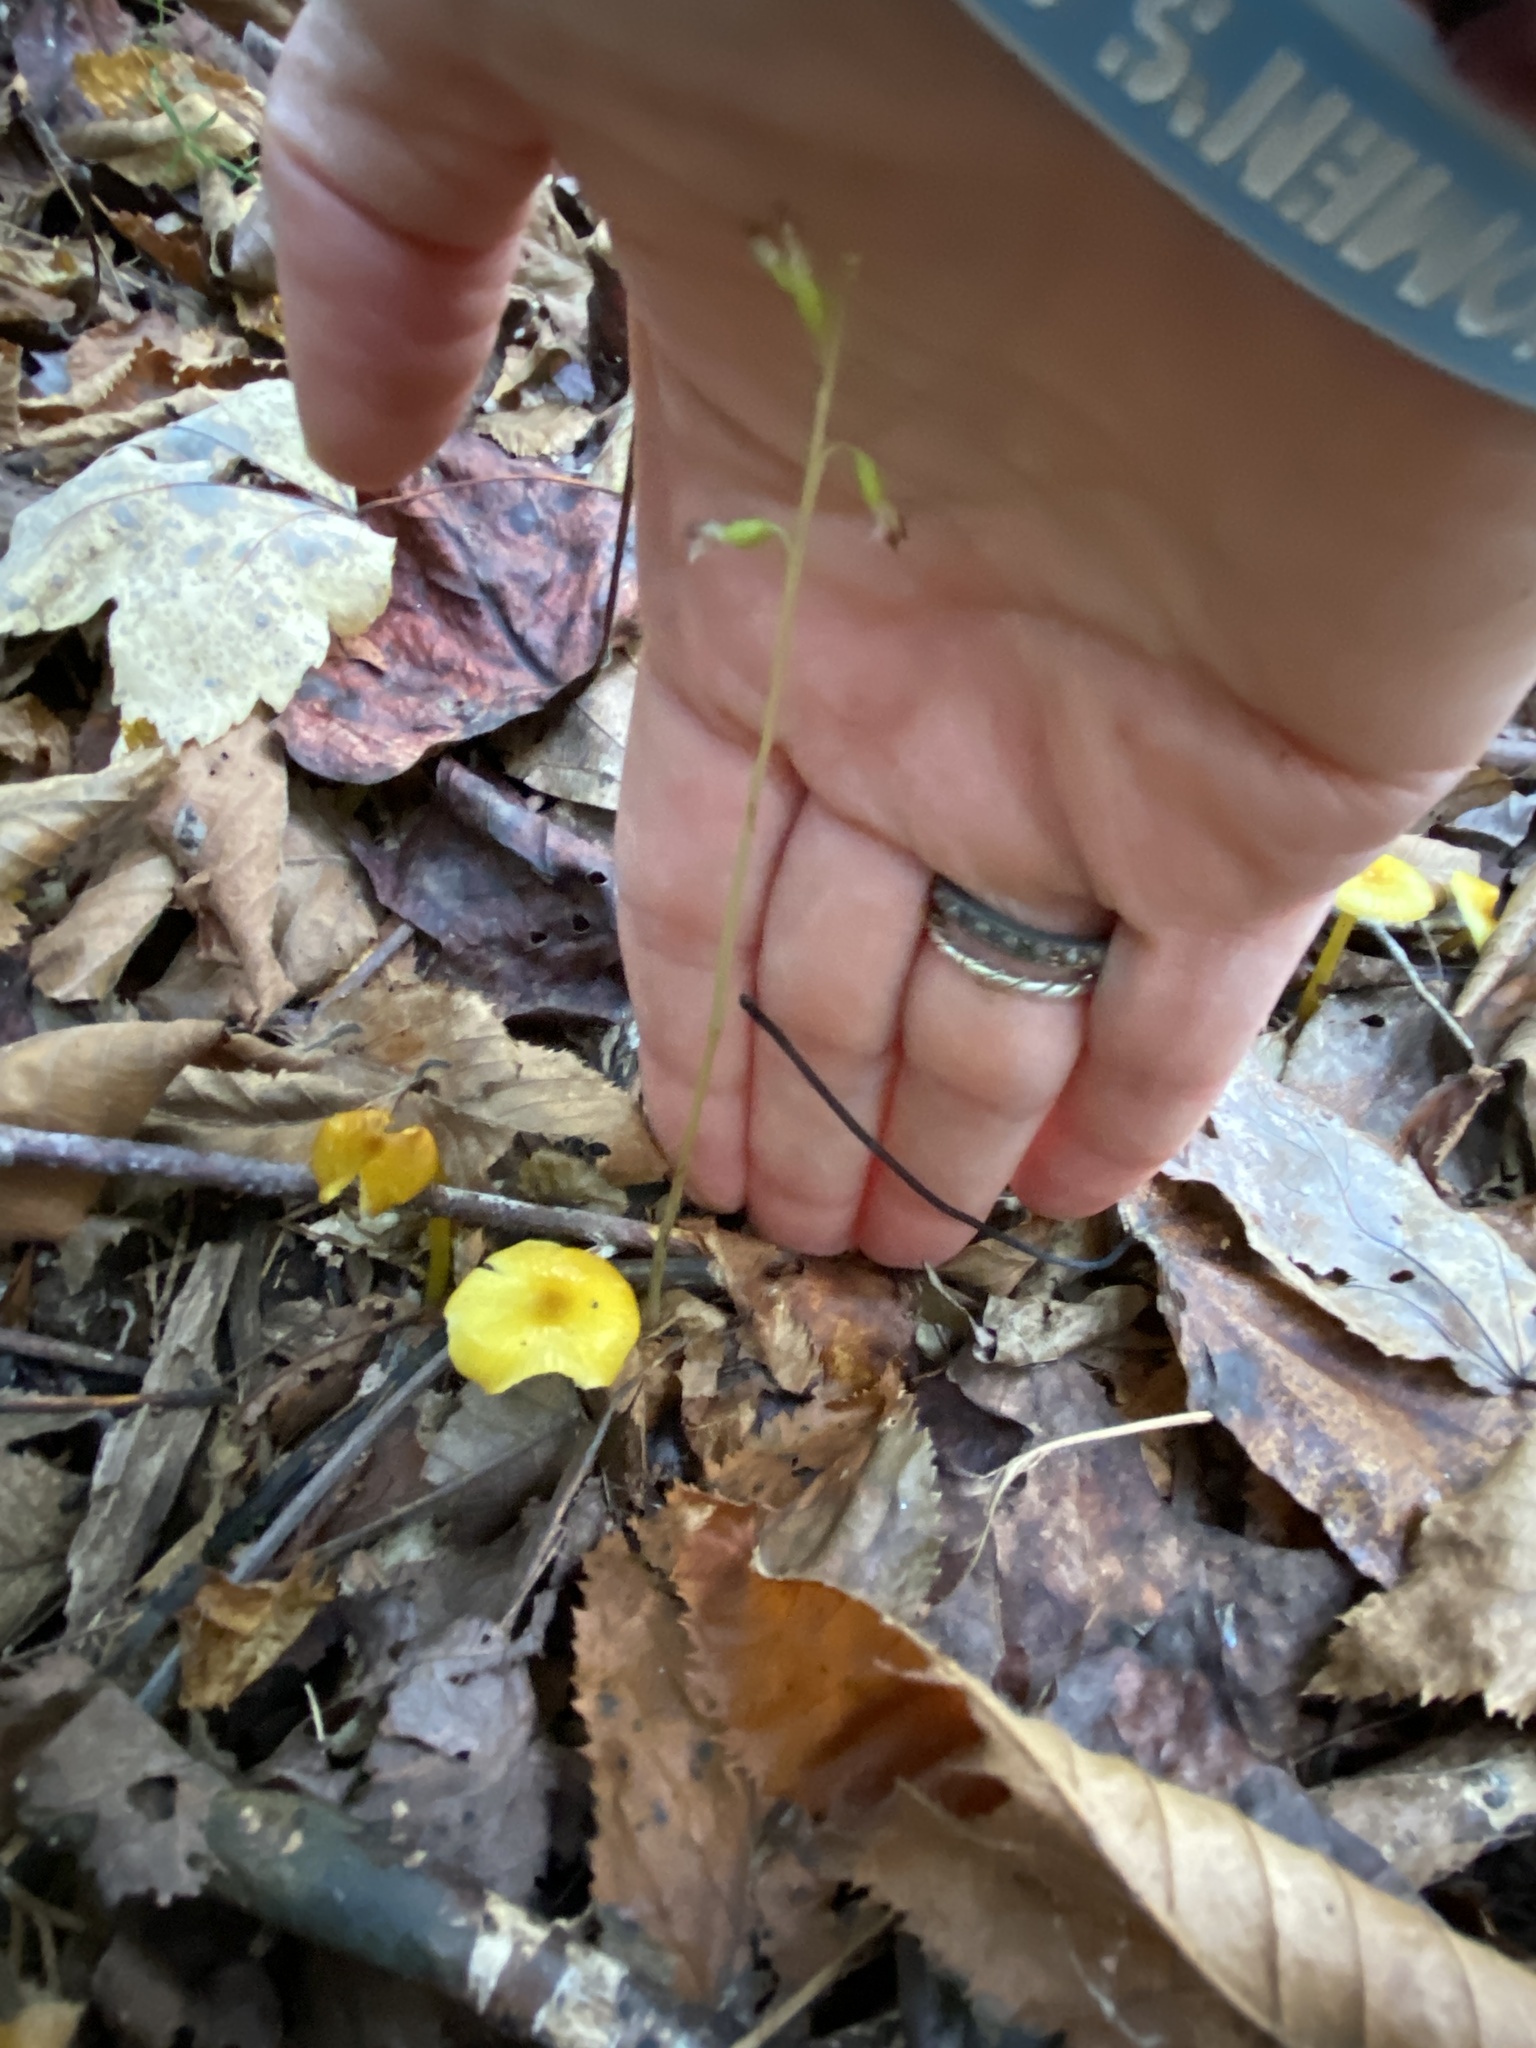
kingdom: Plantae
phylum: Tracheophyta
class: Liliopsida
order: Asparagales
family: Orchidaceae
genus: Corallorhiza
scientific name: Corallorhiza odontorhiza
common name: Autumn coralroot
